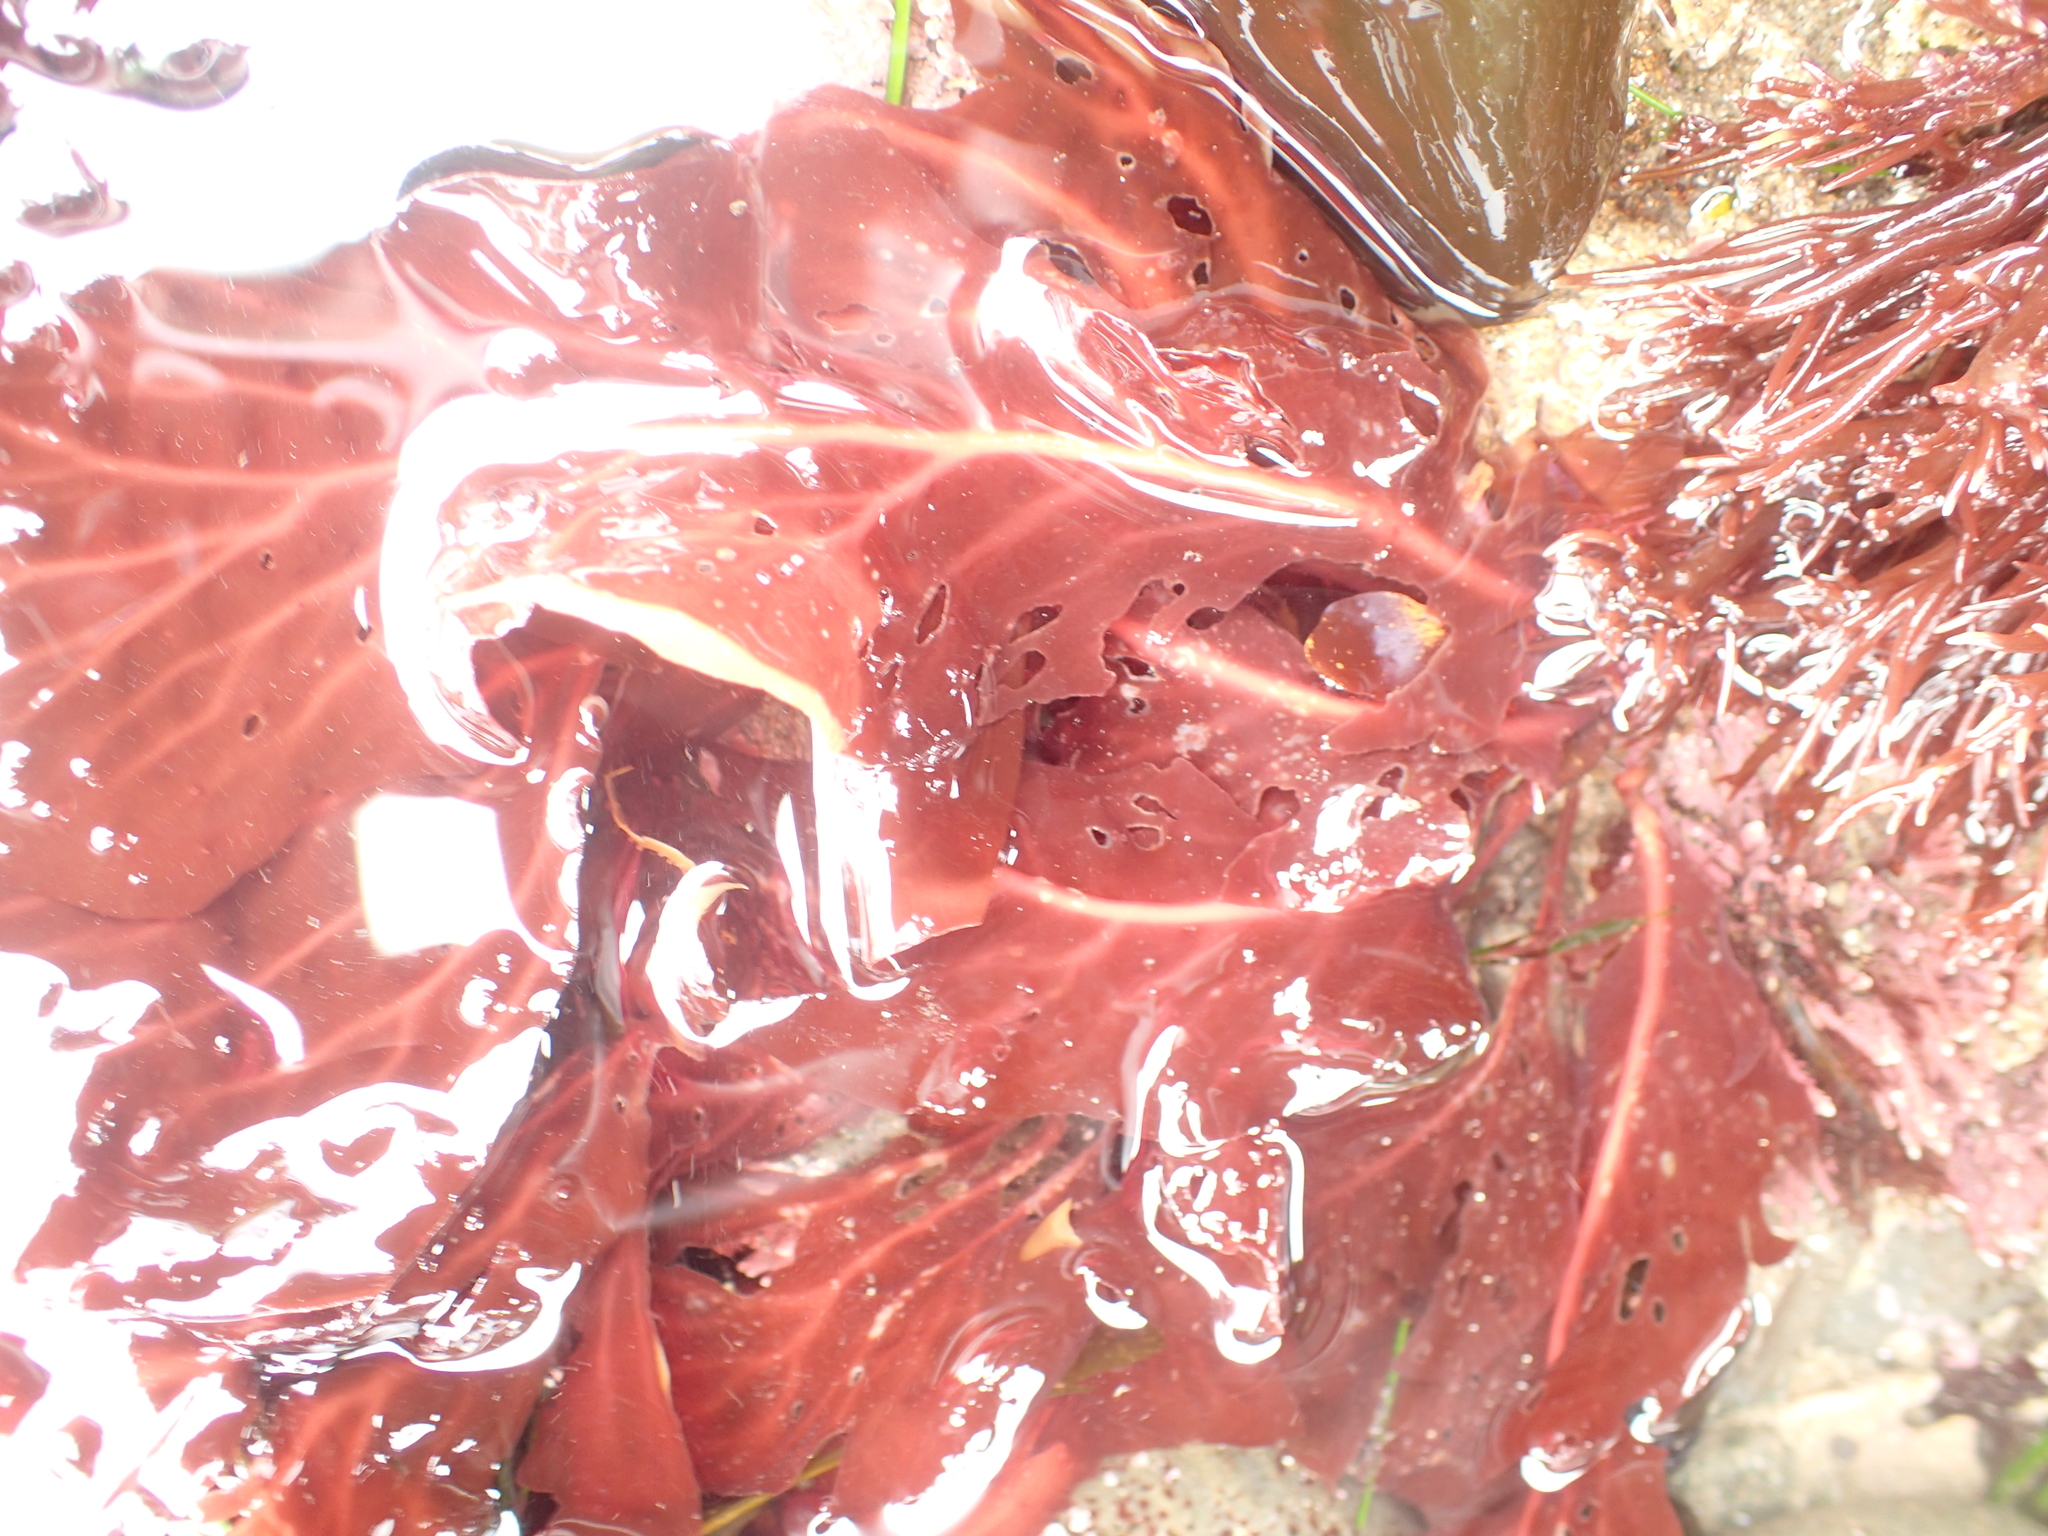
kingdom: Plantae
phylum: Rhodophyta
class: Florideophyceae
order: Gigartinales
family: Kallymeniaceae
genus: Erythrophyllum
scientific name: Erythrophyllum delesserioides
